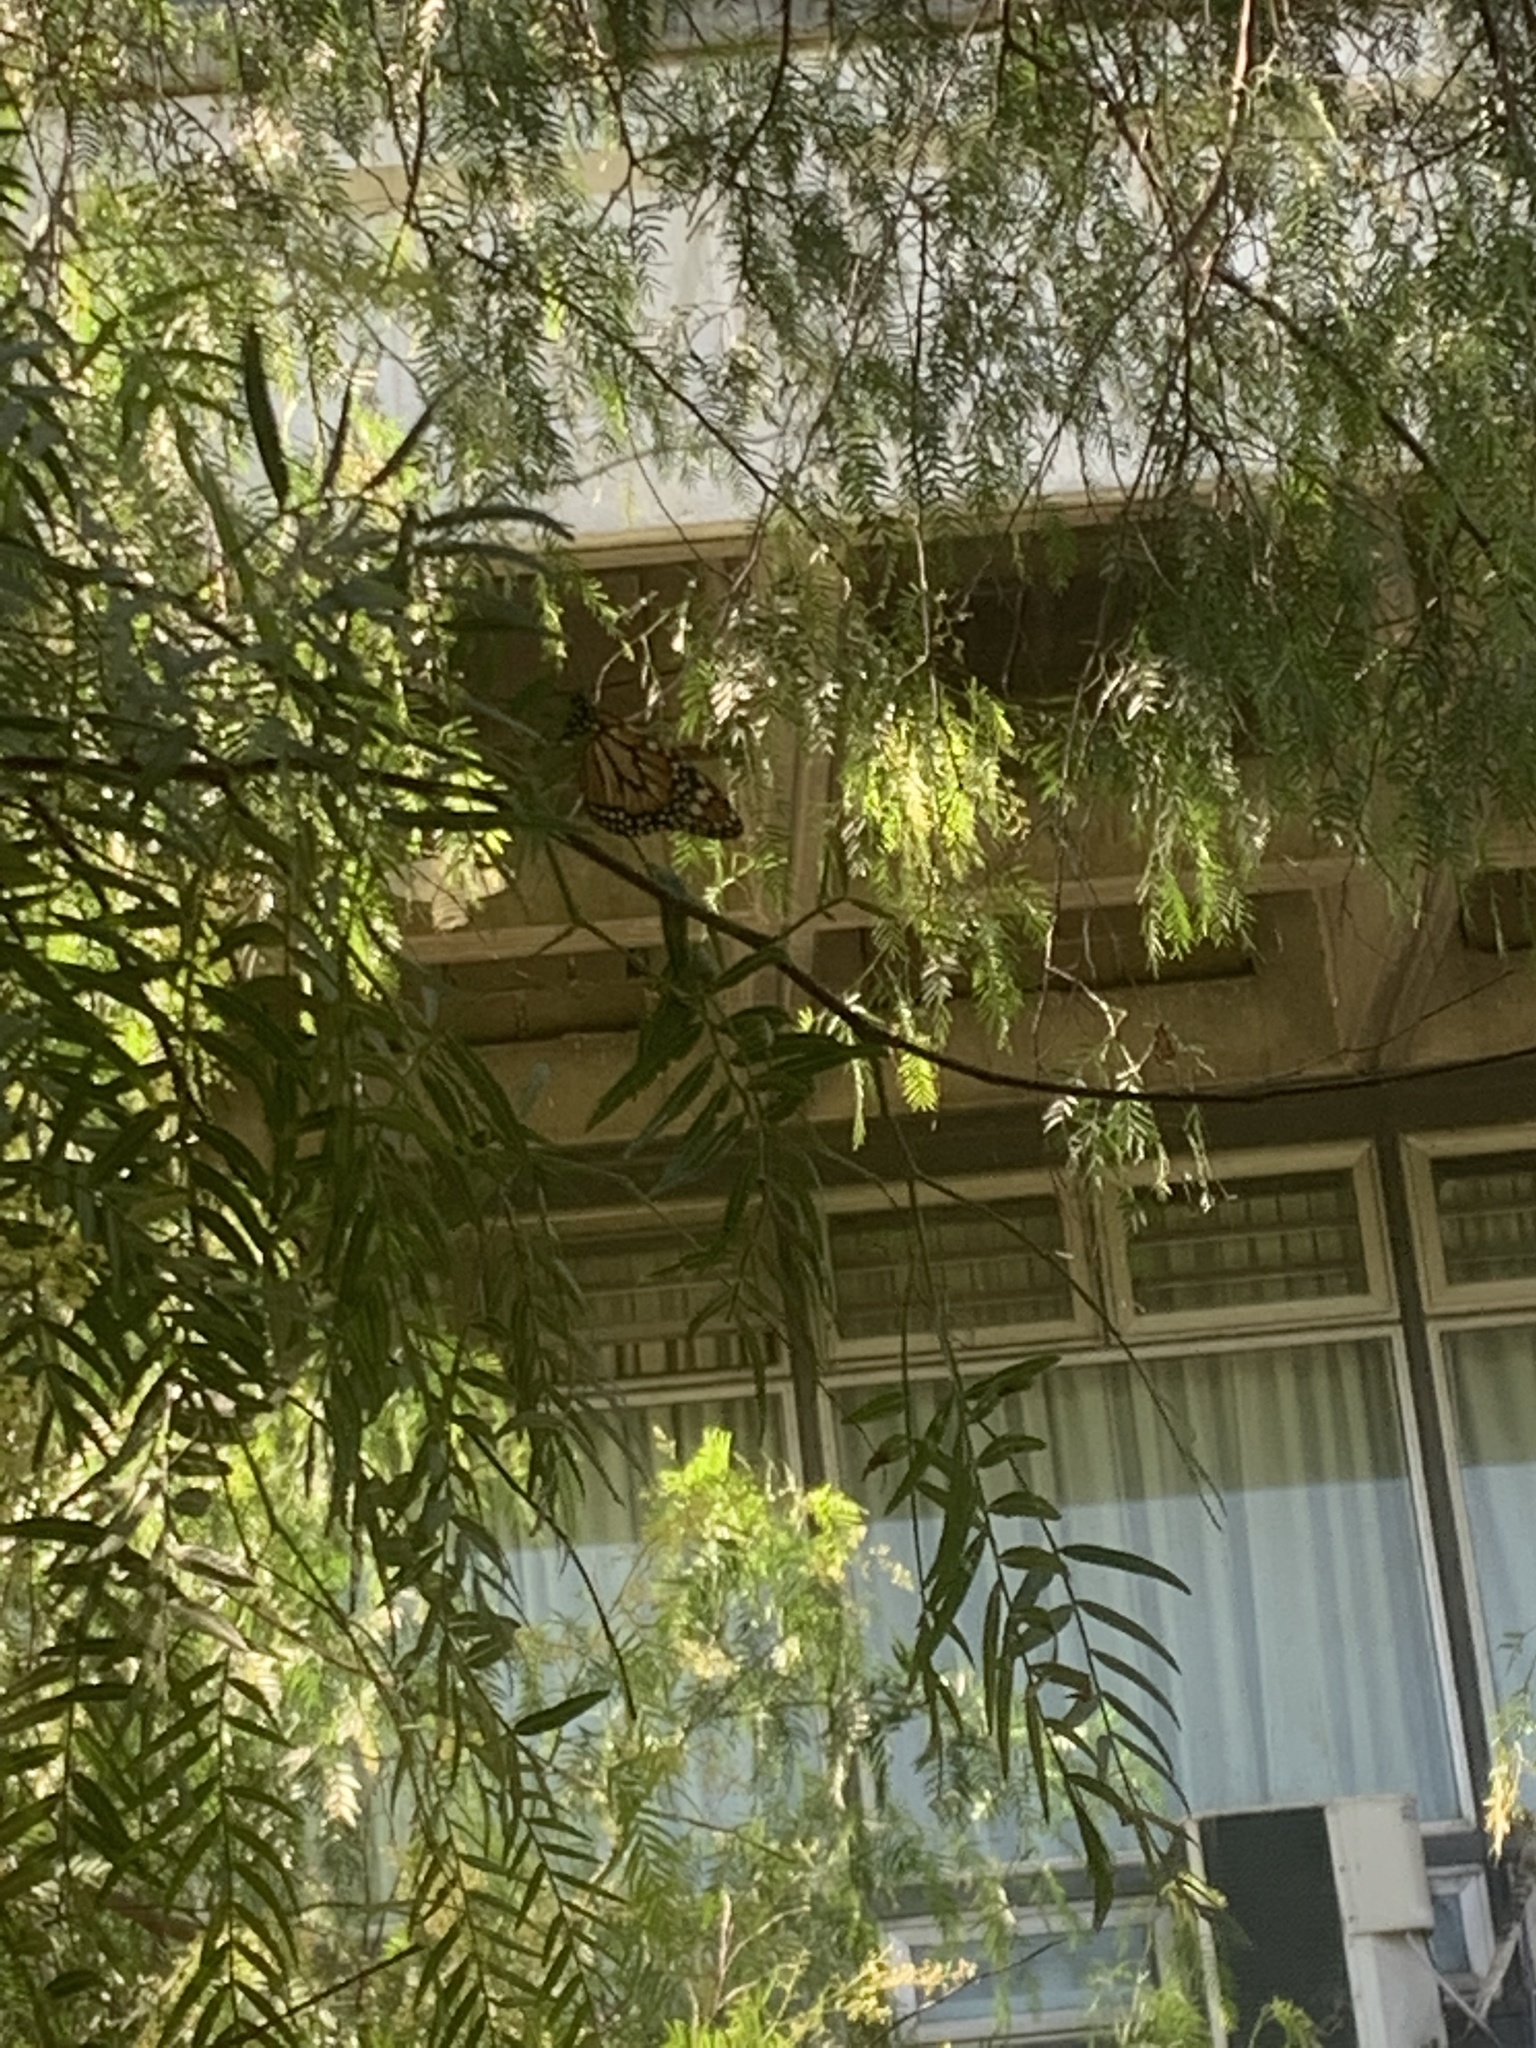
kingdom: Animalia
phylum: Arthropoda
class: Insecta
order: Lepidoptera
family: Nymphalidae
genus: Danaus
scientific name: Danaus erippus
